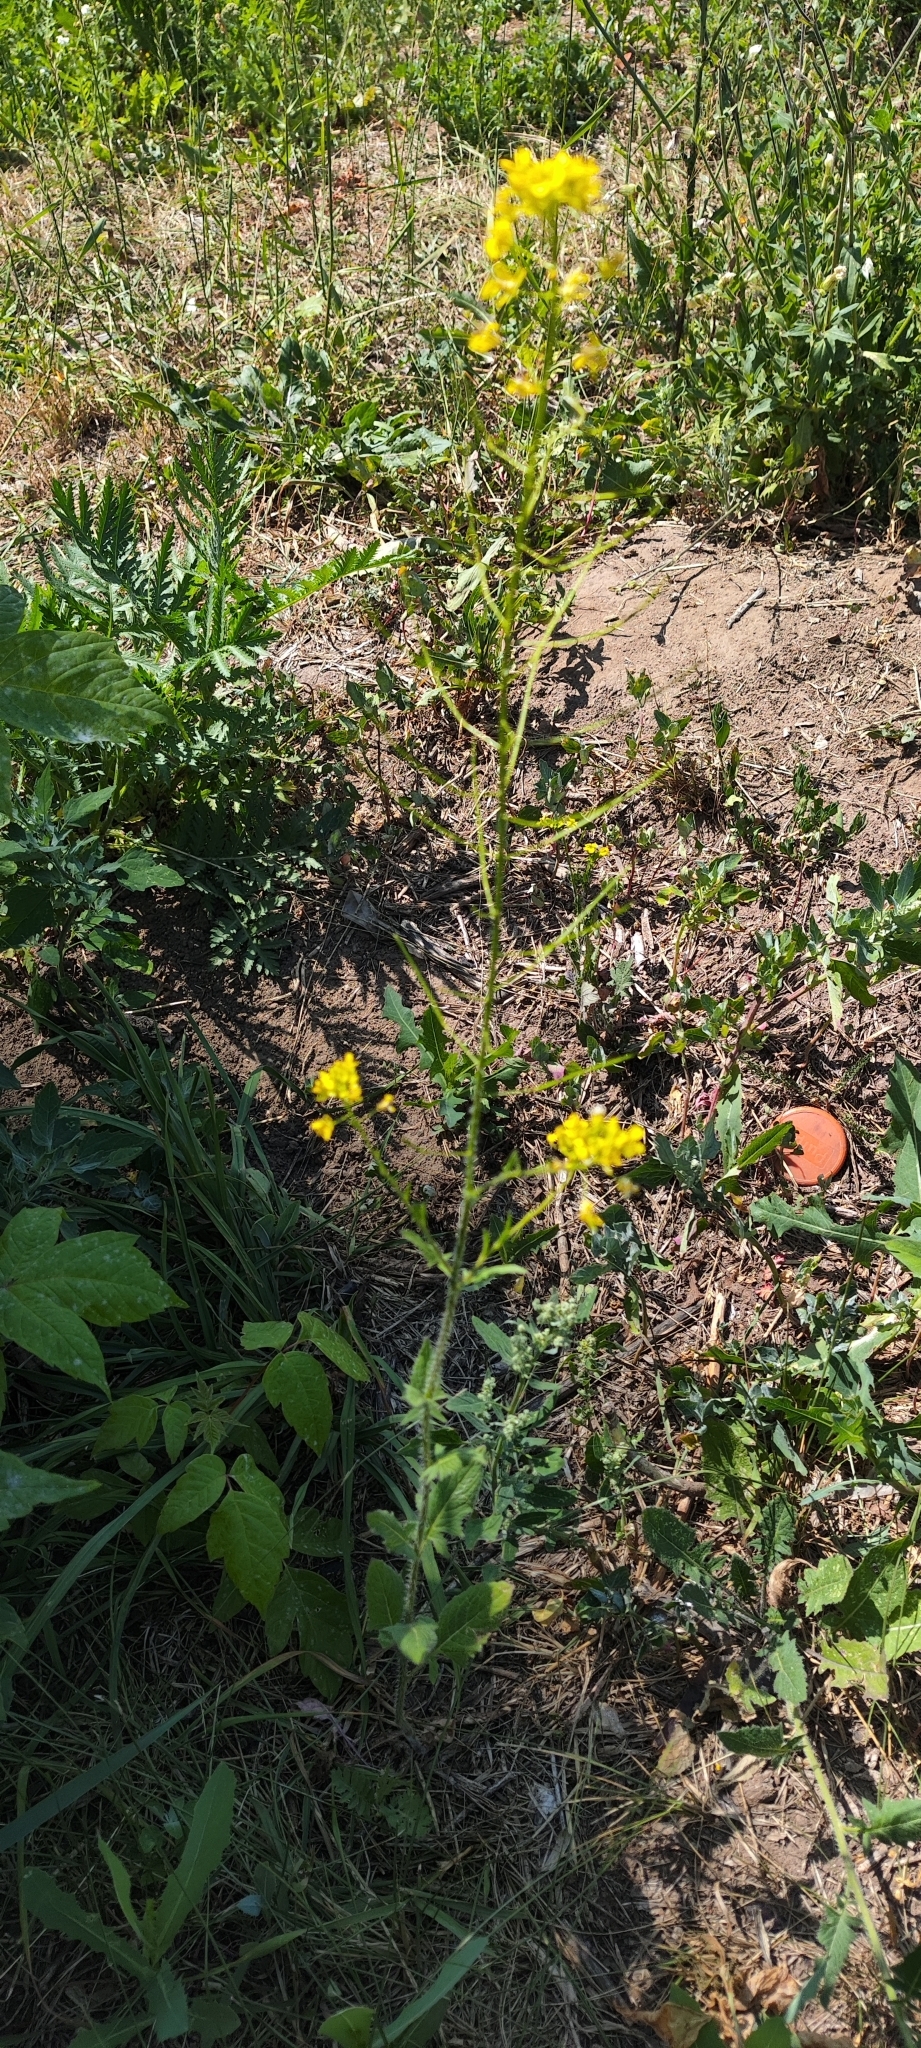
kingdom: Plantae
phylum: Tracheophyta
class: Magnoliopsida
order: Brassicales
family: Brassicaceae
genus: Sisymbrium
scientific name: Sisymbrium loeselii
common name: False london-rocket
